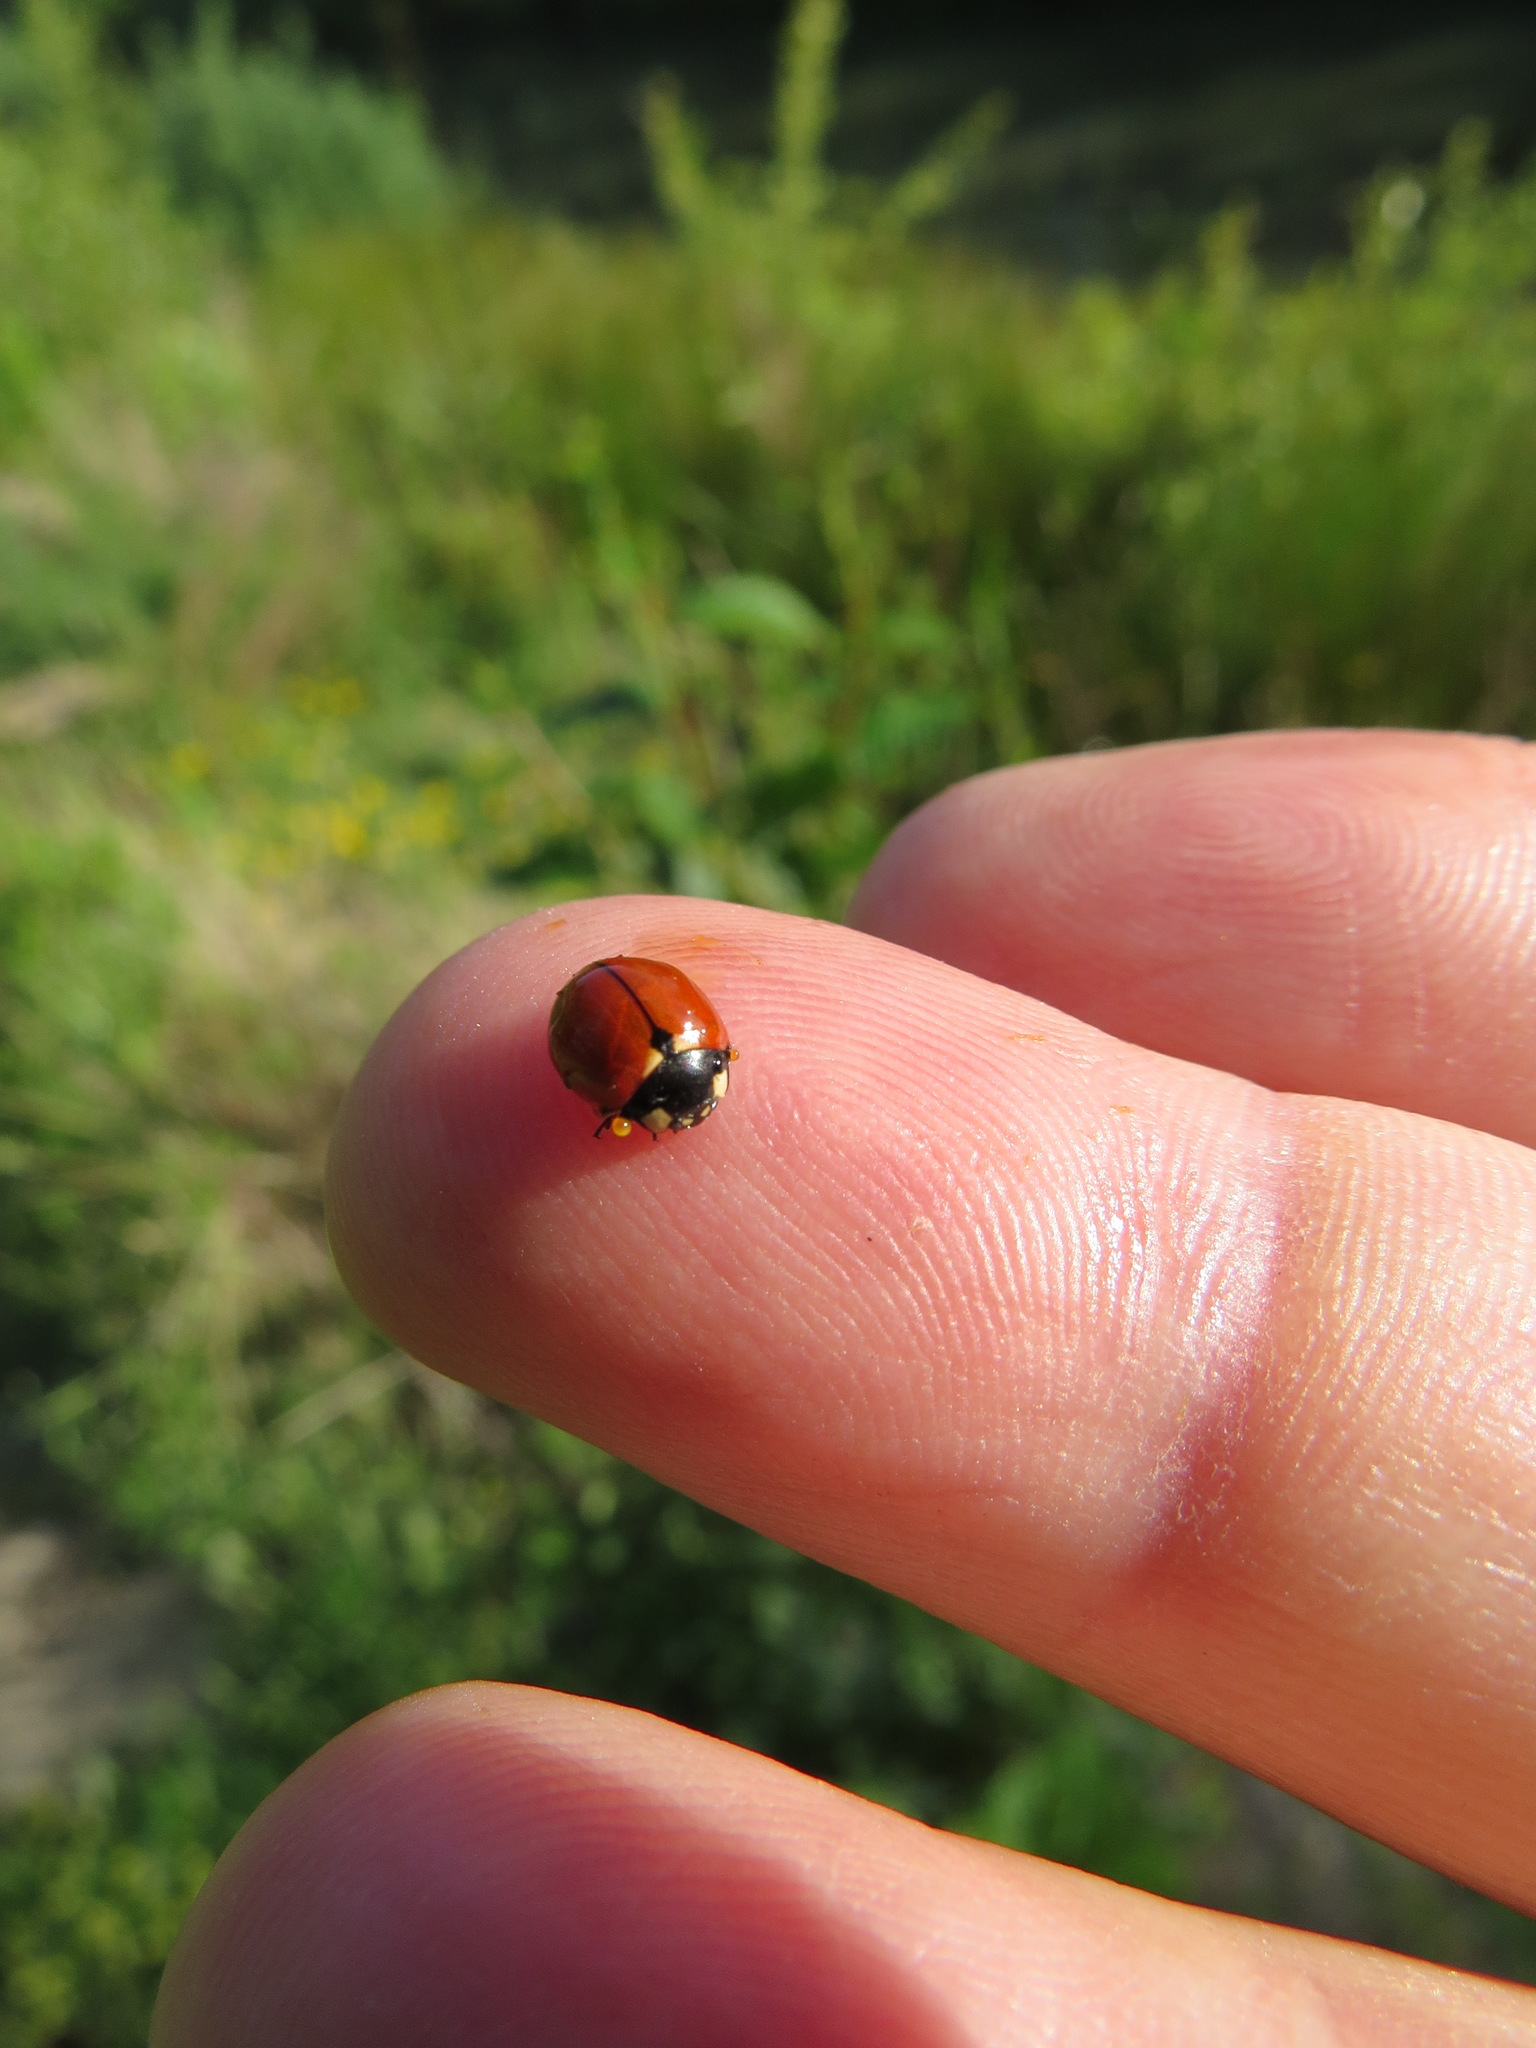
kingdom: Animalia
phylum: Arthropoda
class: Insecta
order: Coleoptera
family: Coccinellidae
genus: Coccinella
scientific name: Coccinella californica
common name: Lady beetle
